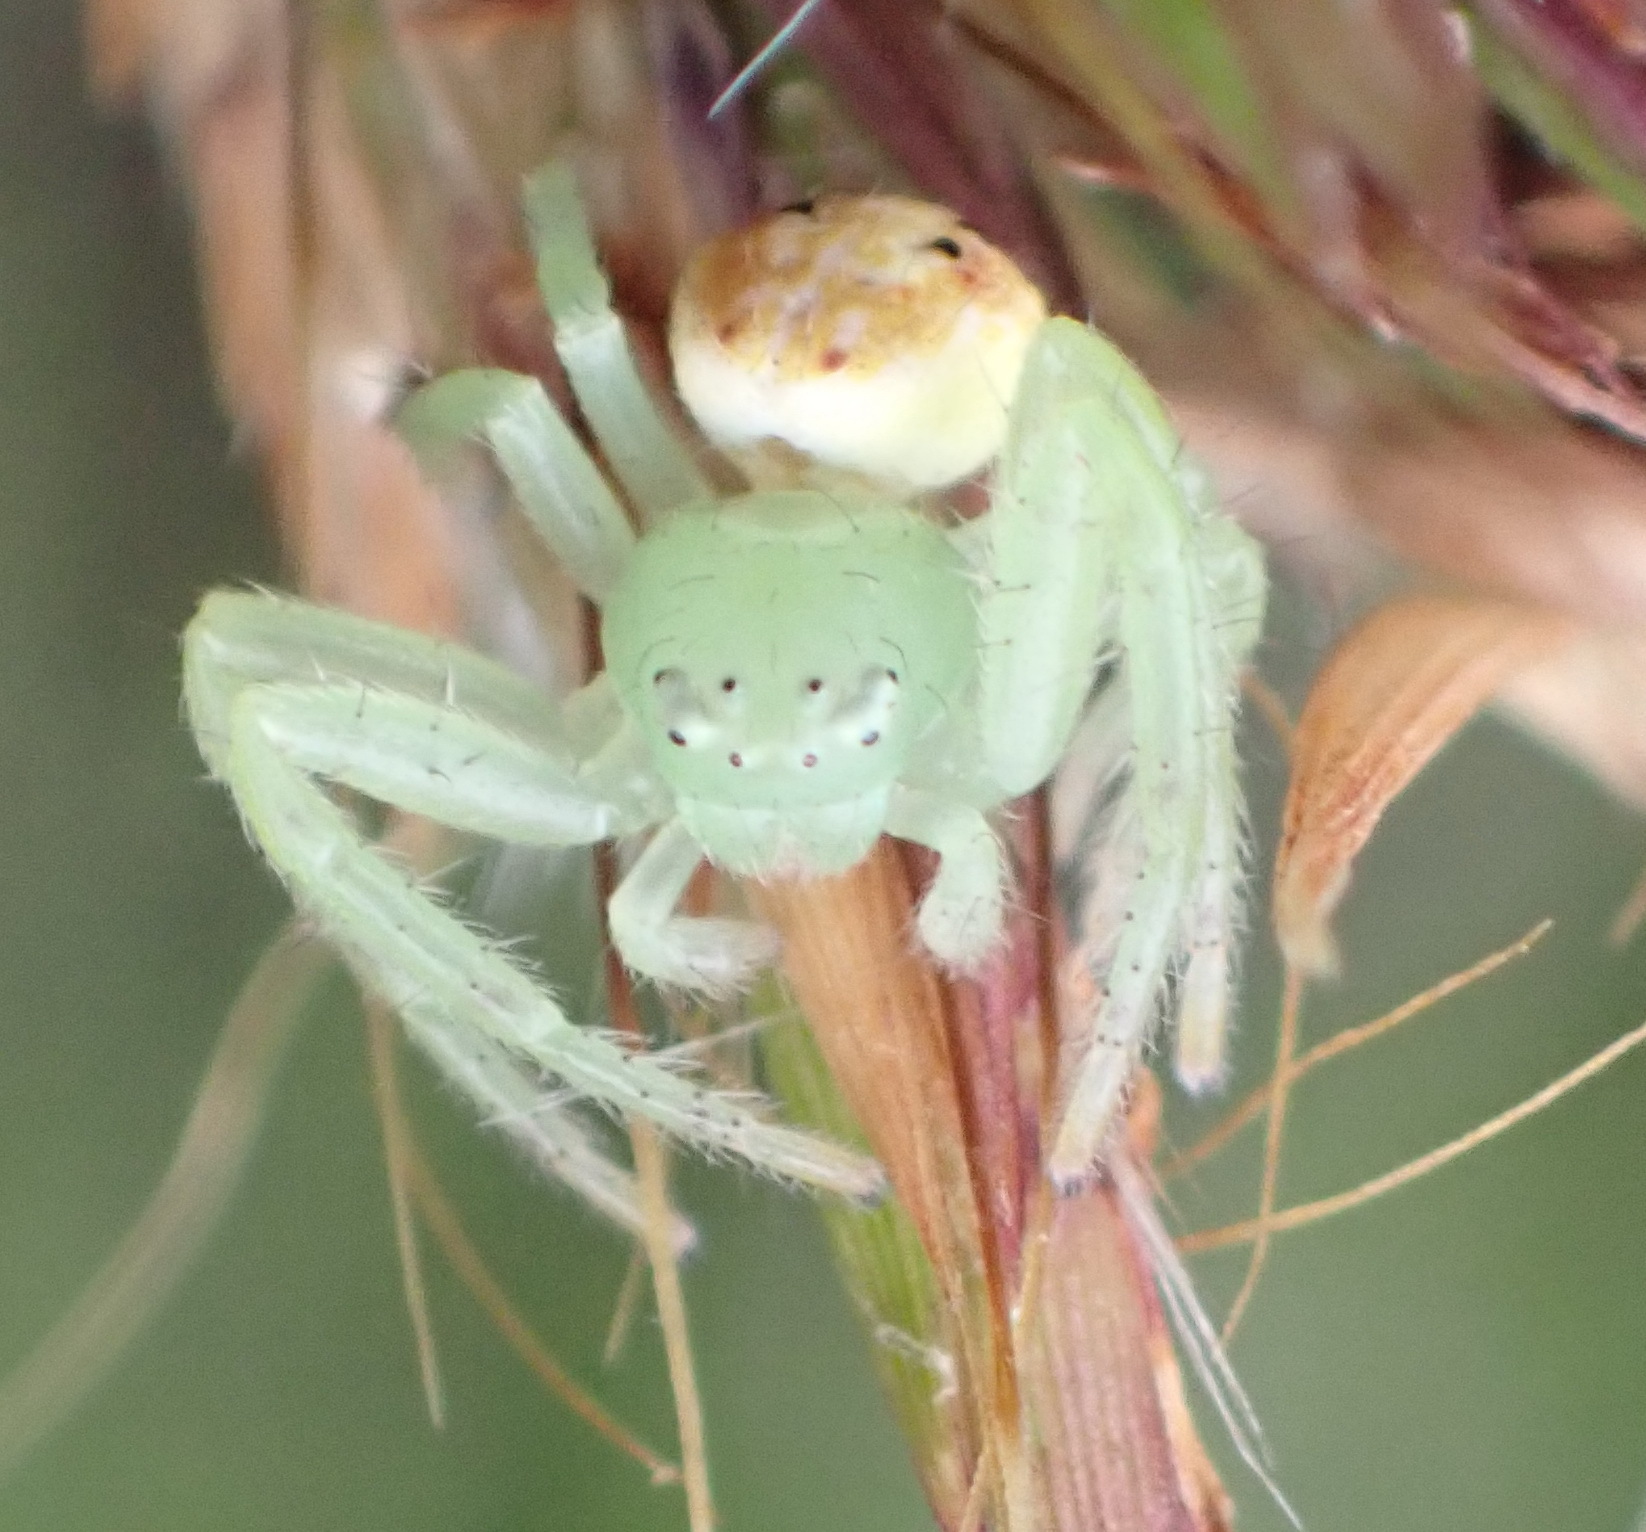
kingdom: Animalia
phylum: Arthropoda
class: Arachnida
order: Araneae
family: Thomisidae
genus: Diaea
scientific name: Diaea puncta
